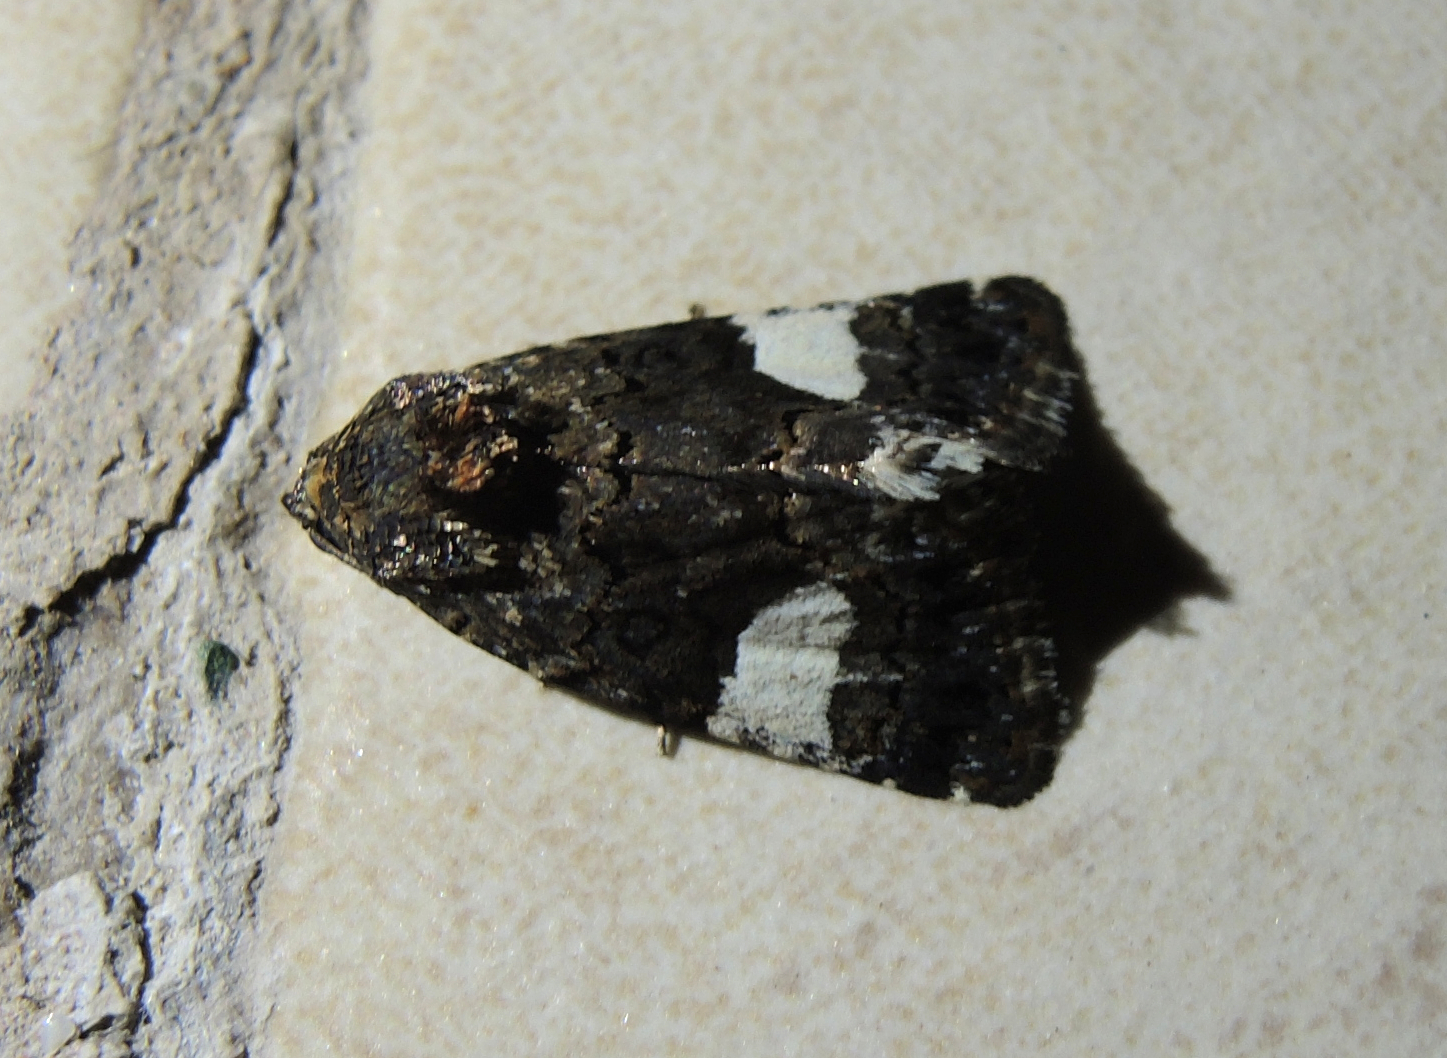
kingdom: Animalia
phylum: Arthropoda
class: Insecta
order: Lepidoptera
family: Erebidae
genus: Tyta
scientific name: Tyta luctuosa
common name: Four-spotted
